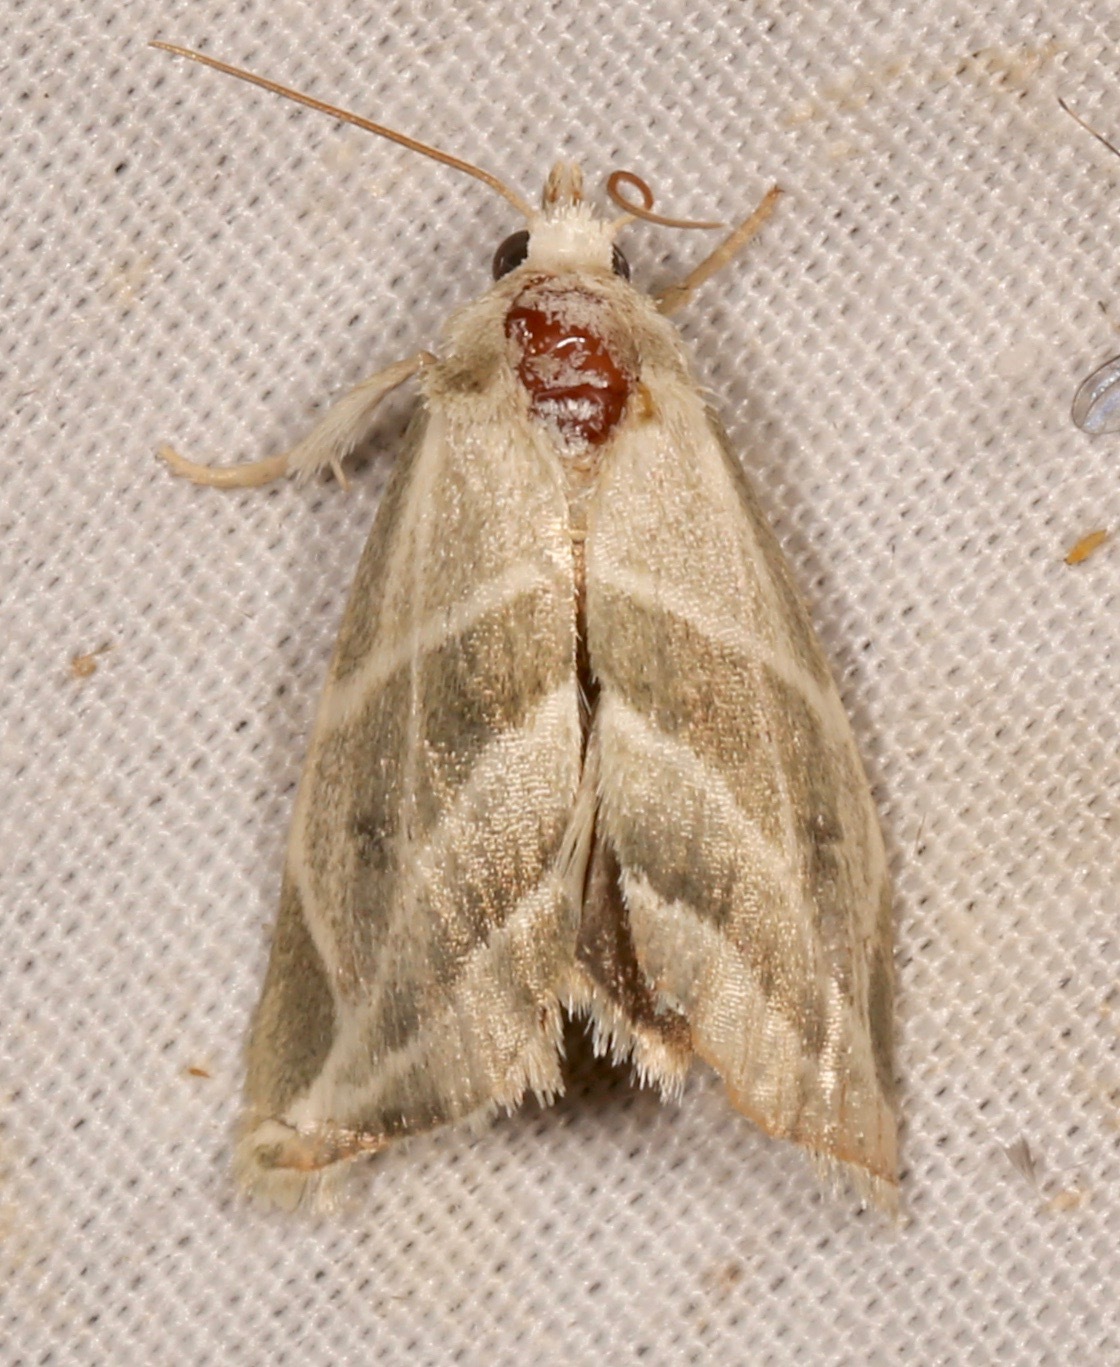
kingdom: Animalia
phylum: Arthropoda
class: Insecta
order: Lepidoptera
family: Noctuidae
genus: Plagiomimicus
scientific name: Plagiomimicus tepperi
